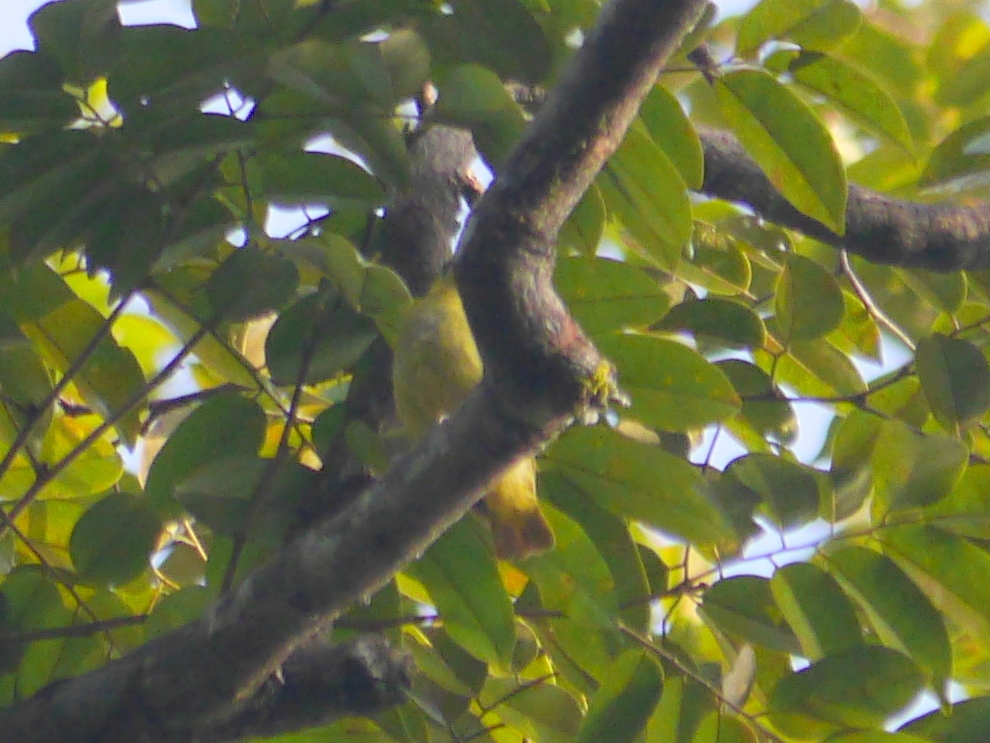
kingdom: Animalia
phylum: Chordata
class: Aves
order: Passeriformes
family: Nectariniidae
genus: Arachnothera
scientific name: Arachnothera chrysogenys
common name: Yellow-eared spiderhunter
